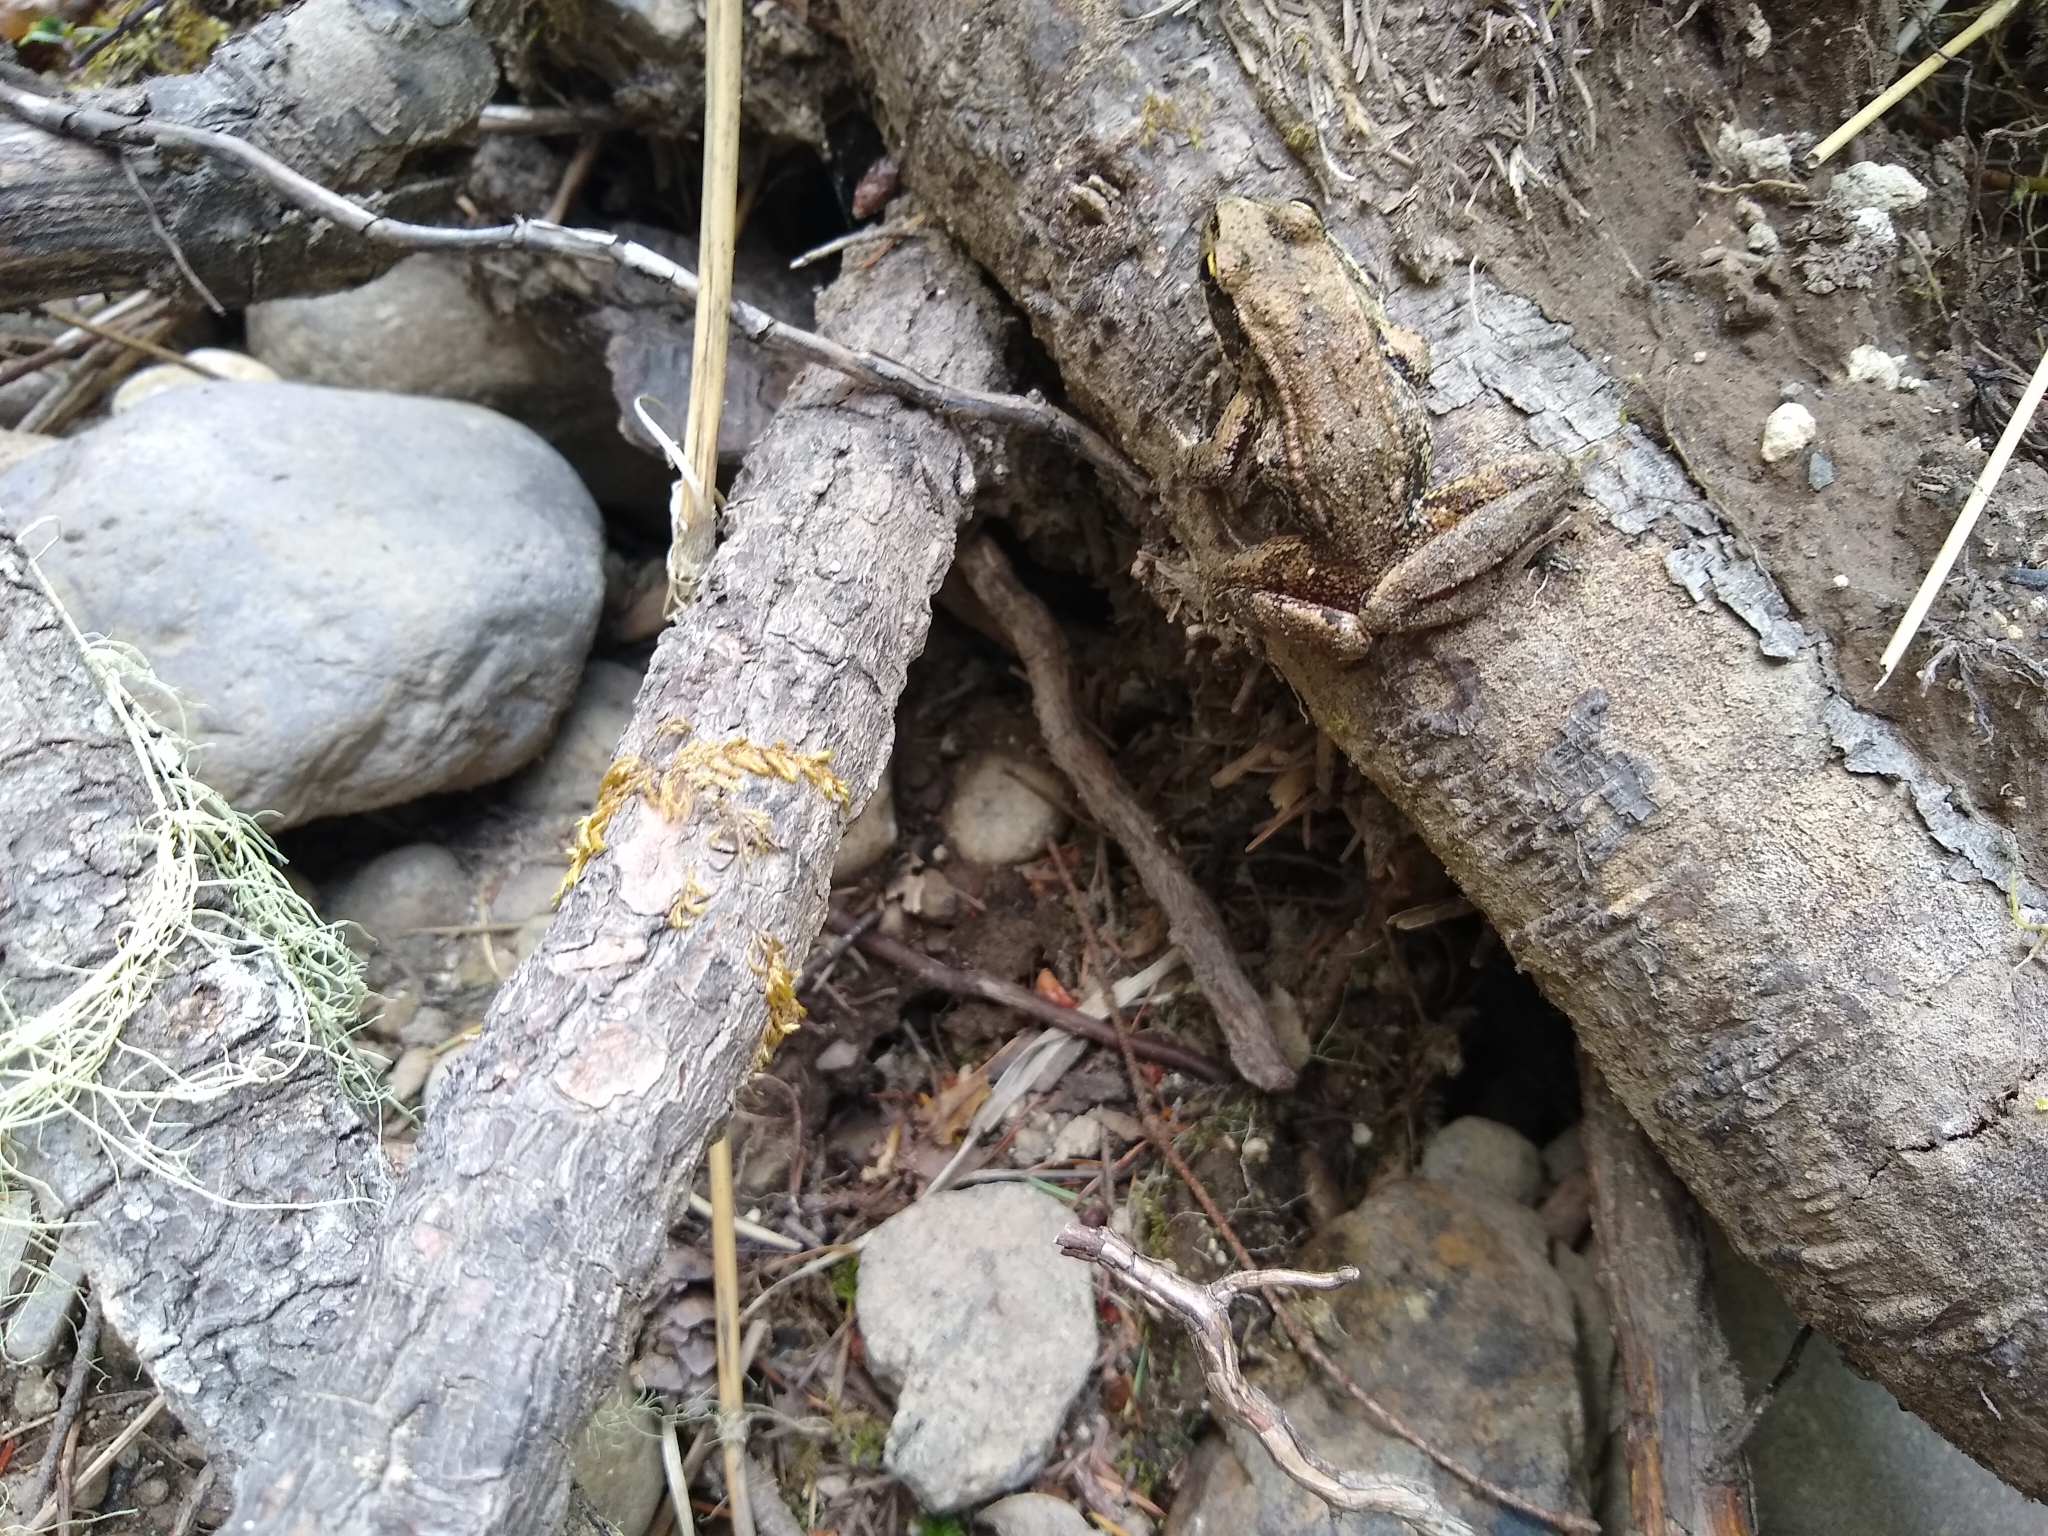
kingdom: Animalia
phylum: Chordata
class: Amphibia
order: Anura
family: Ranidae
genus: Rana
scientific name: Rana aurora
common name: Red-legged frog
